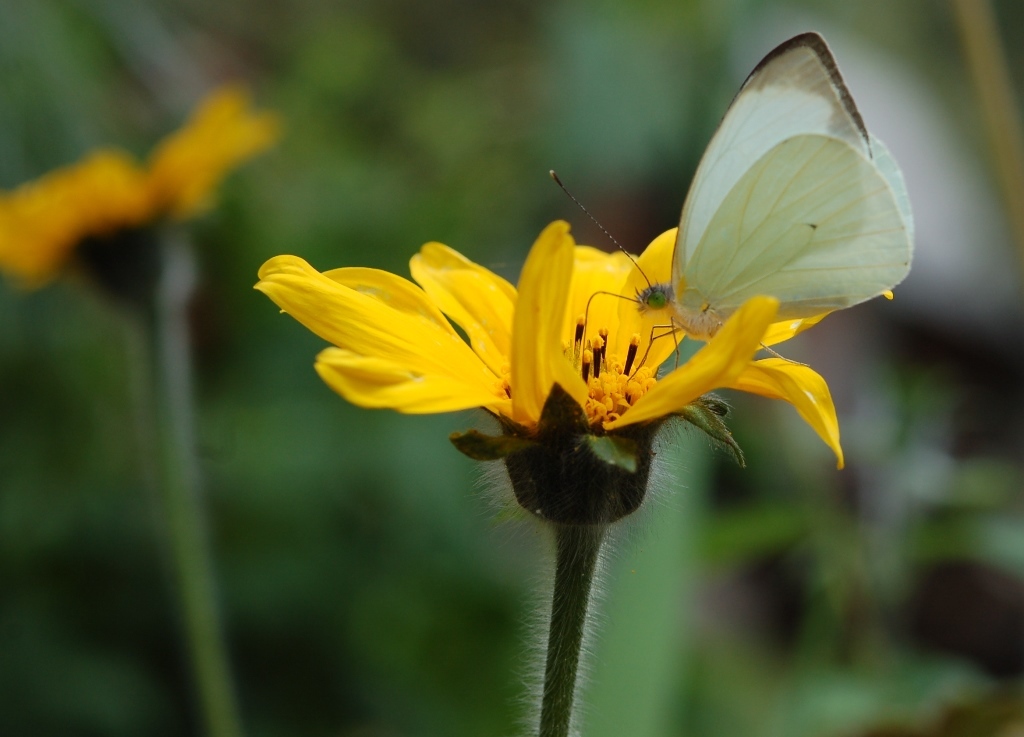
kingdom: Animalia
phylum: Arthropoda
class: Insecta
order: Lepidoptera
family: Pieridae
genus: Leptophobia
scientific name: Leptophobia aripa
